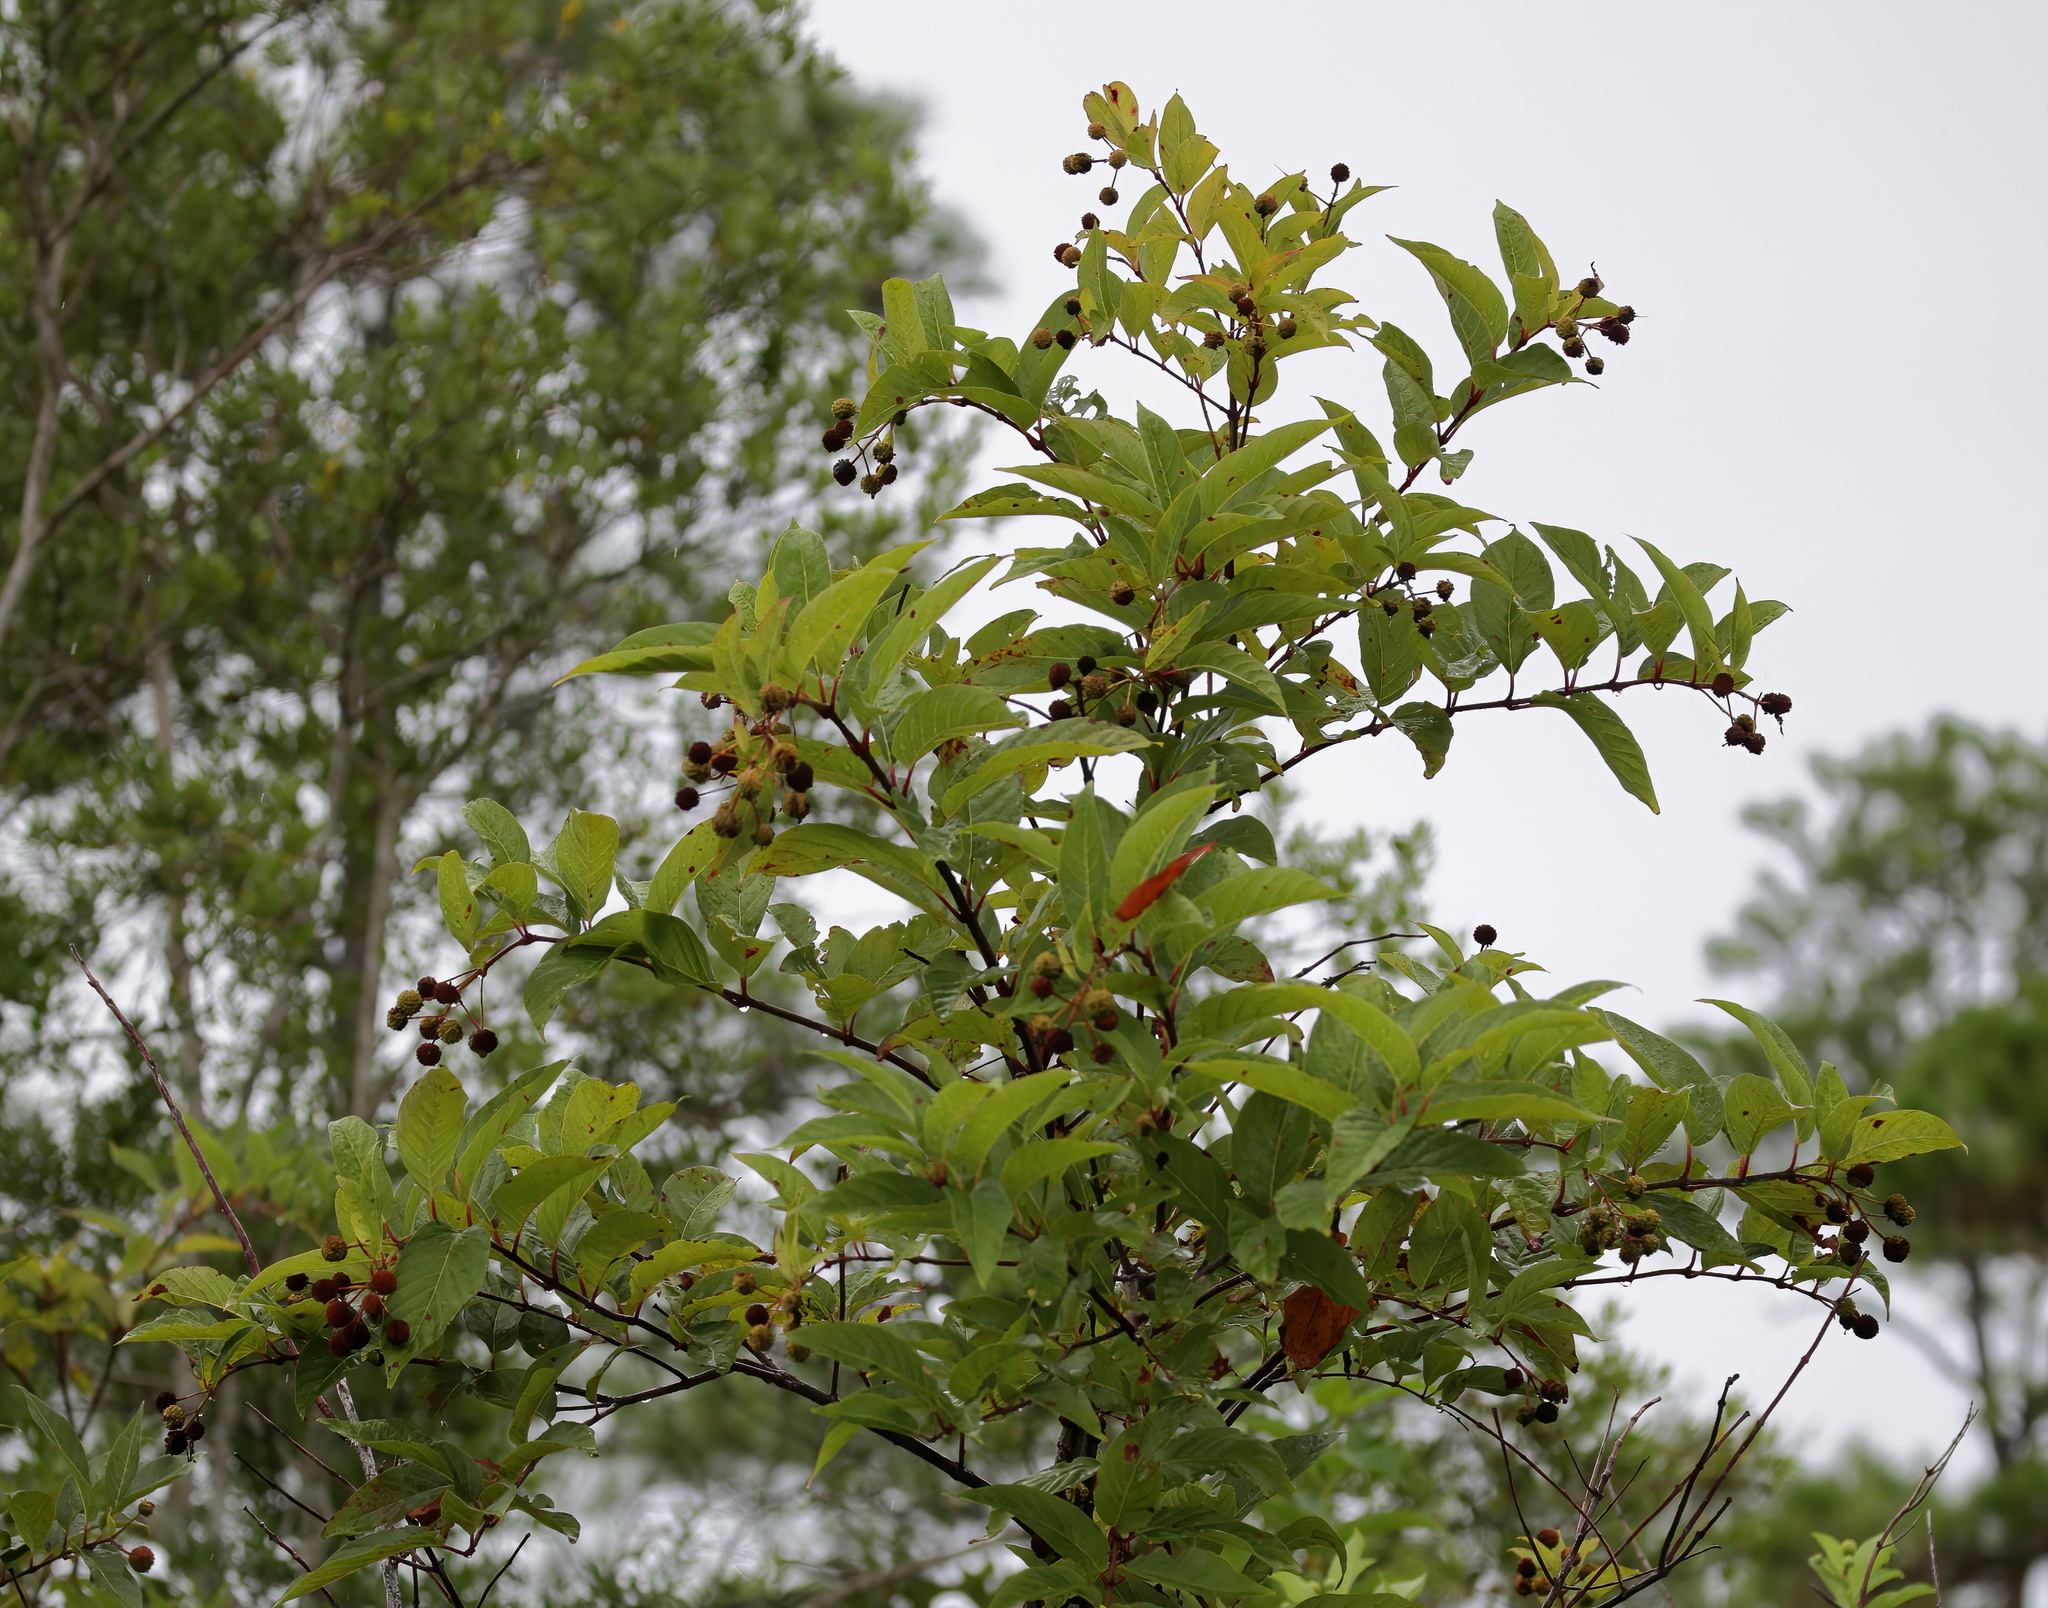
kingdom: Plantae
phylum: Tracheophyta
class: Magnoliopsida
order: Gentianales
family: Rubiaceae
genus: Cephalanthus
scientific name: Cephalanthus occidentalis
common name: Button-willow
